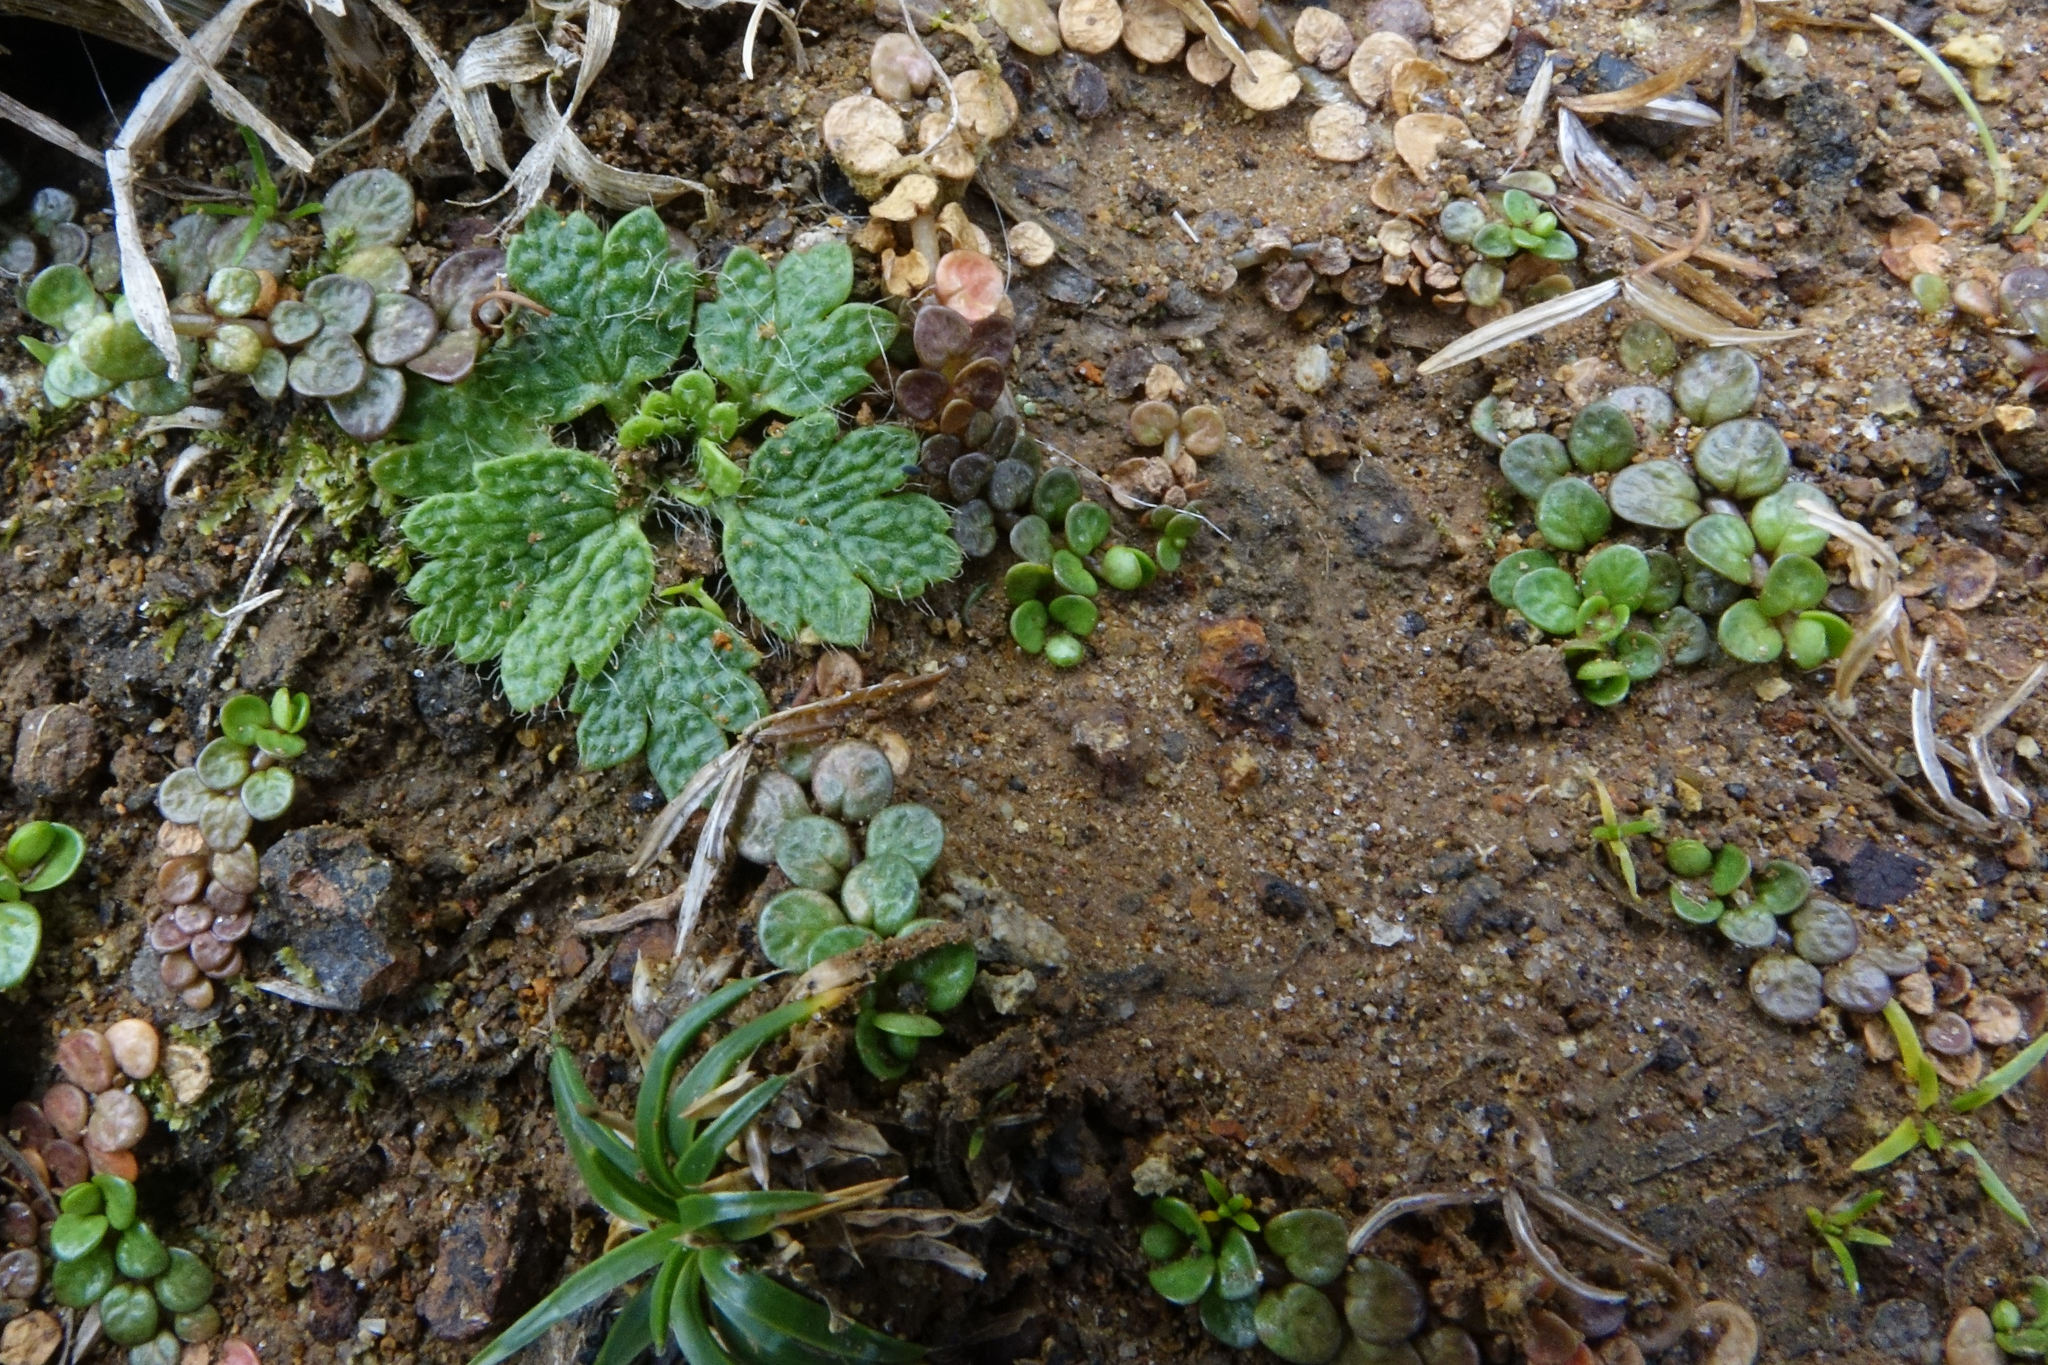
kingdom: Plantae
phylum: Tracheophyta
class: Magnoliopsida
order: Ranunculales
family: Ranunculaceae
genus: Ranunculus
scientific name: Ranunculus recens
